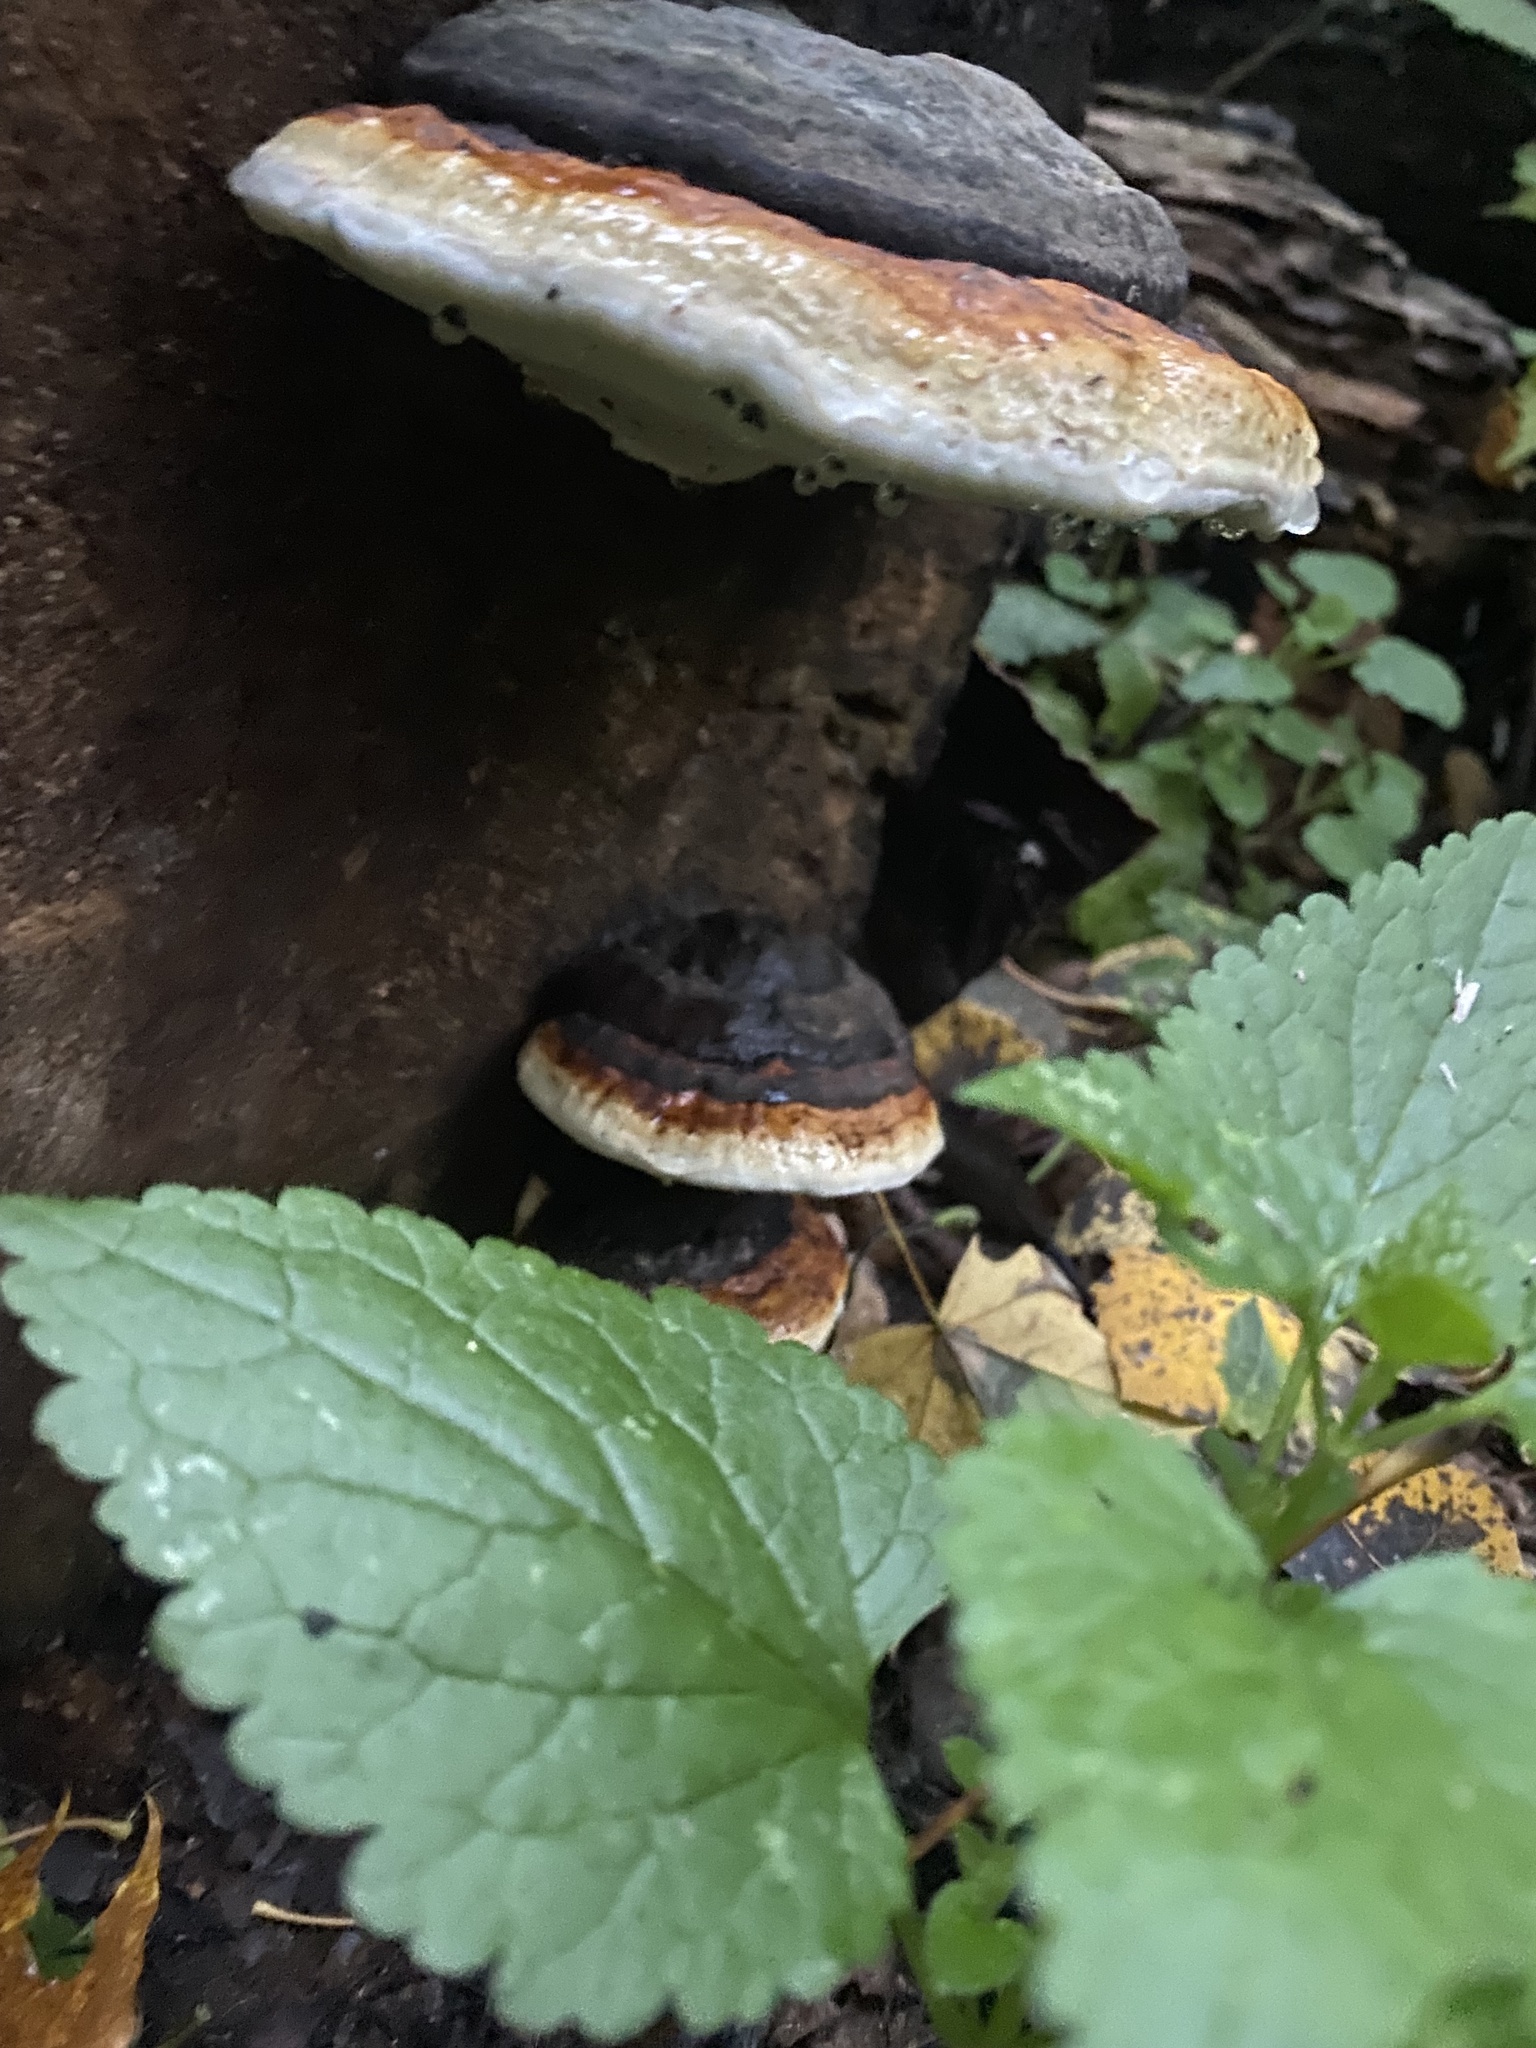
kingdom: Fungi
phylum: Basidiomycota
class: Agaricomycetes
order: Polyporales
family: Fomitopsidaceae
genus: Fomitopsis
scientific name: Fomitopsis pinicola
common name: Red-belted bracket
